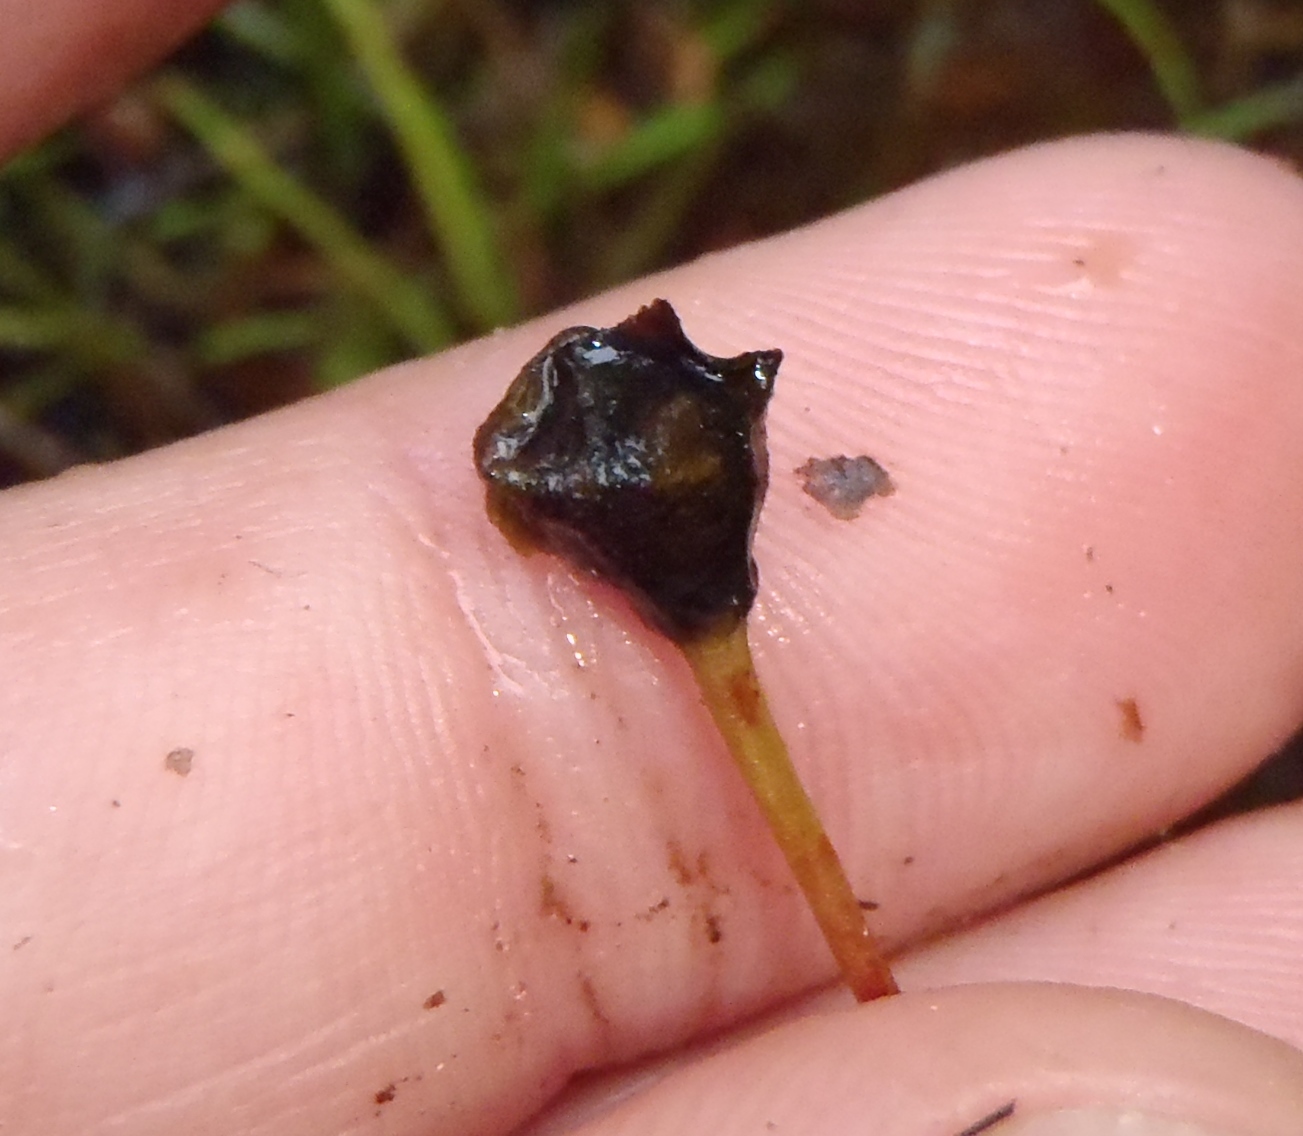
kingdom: Plantae
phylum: Tracheophyta
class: Liliopsida
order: Asparagales
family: Asteliaceae
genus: Astelia
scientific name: Astelia linearis
